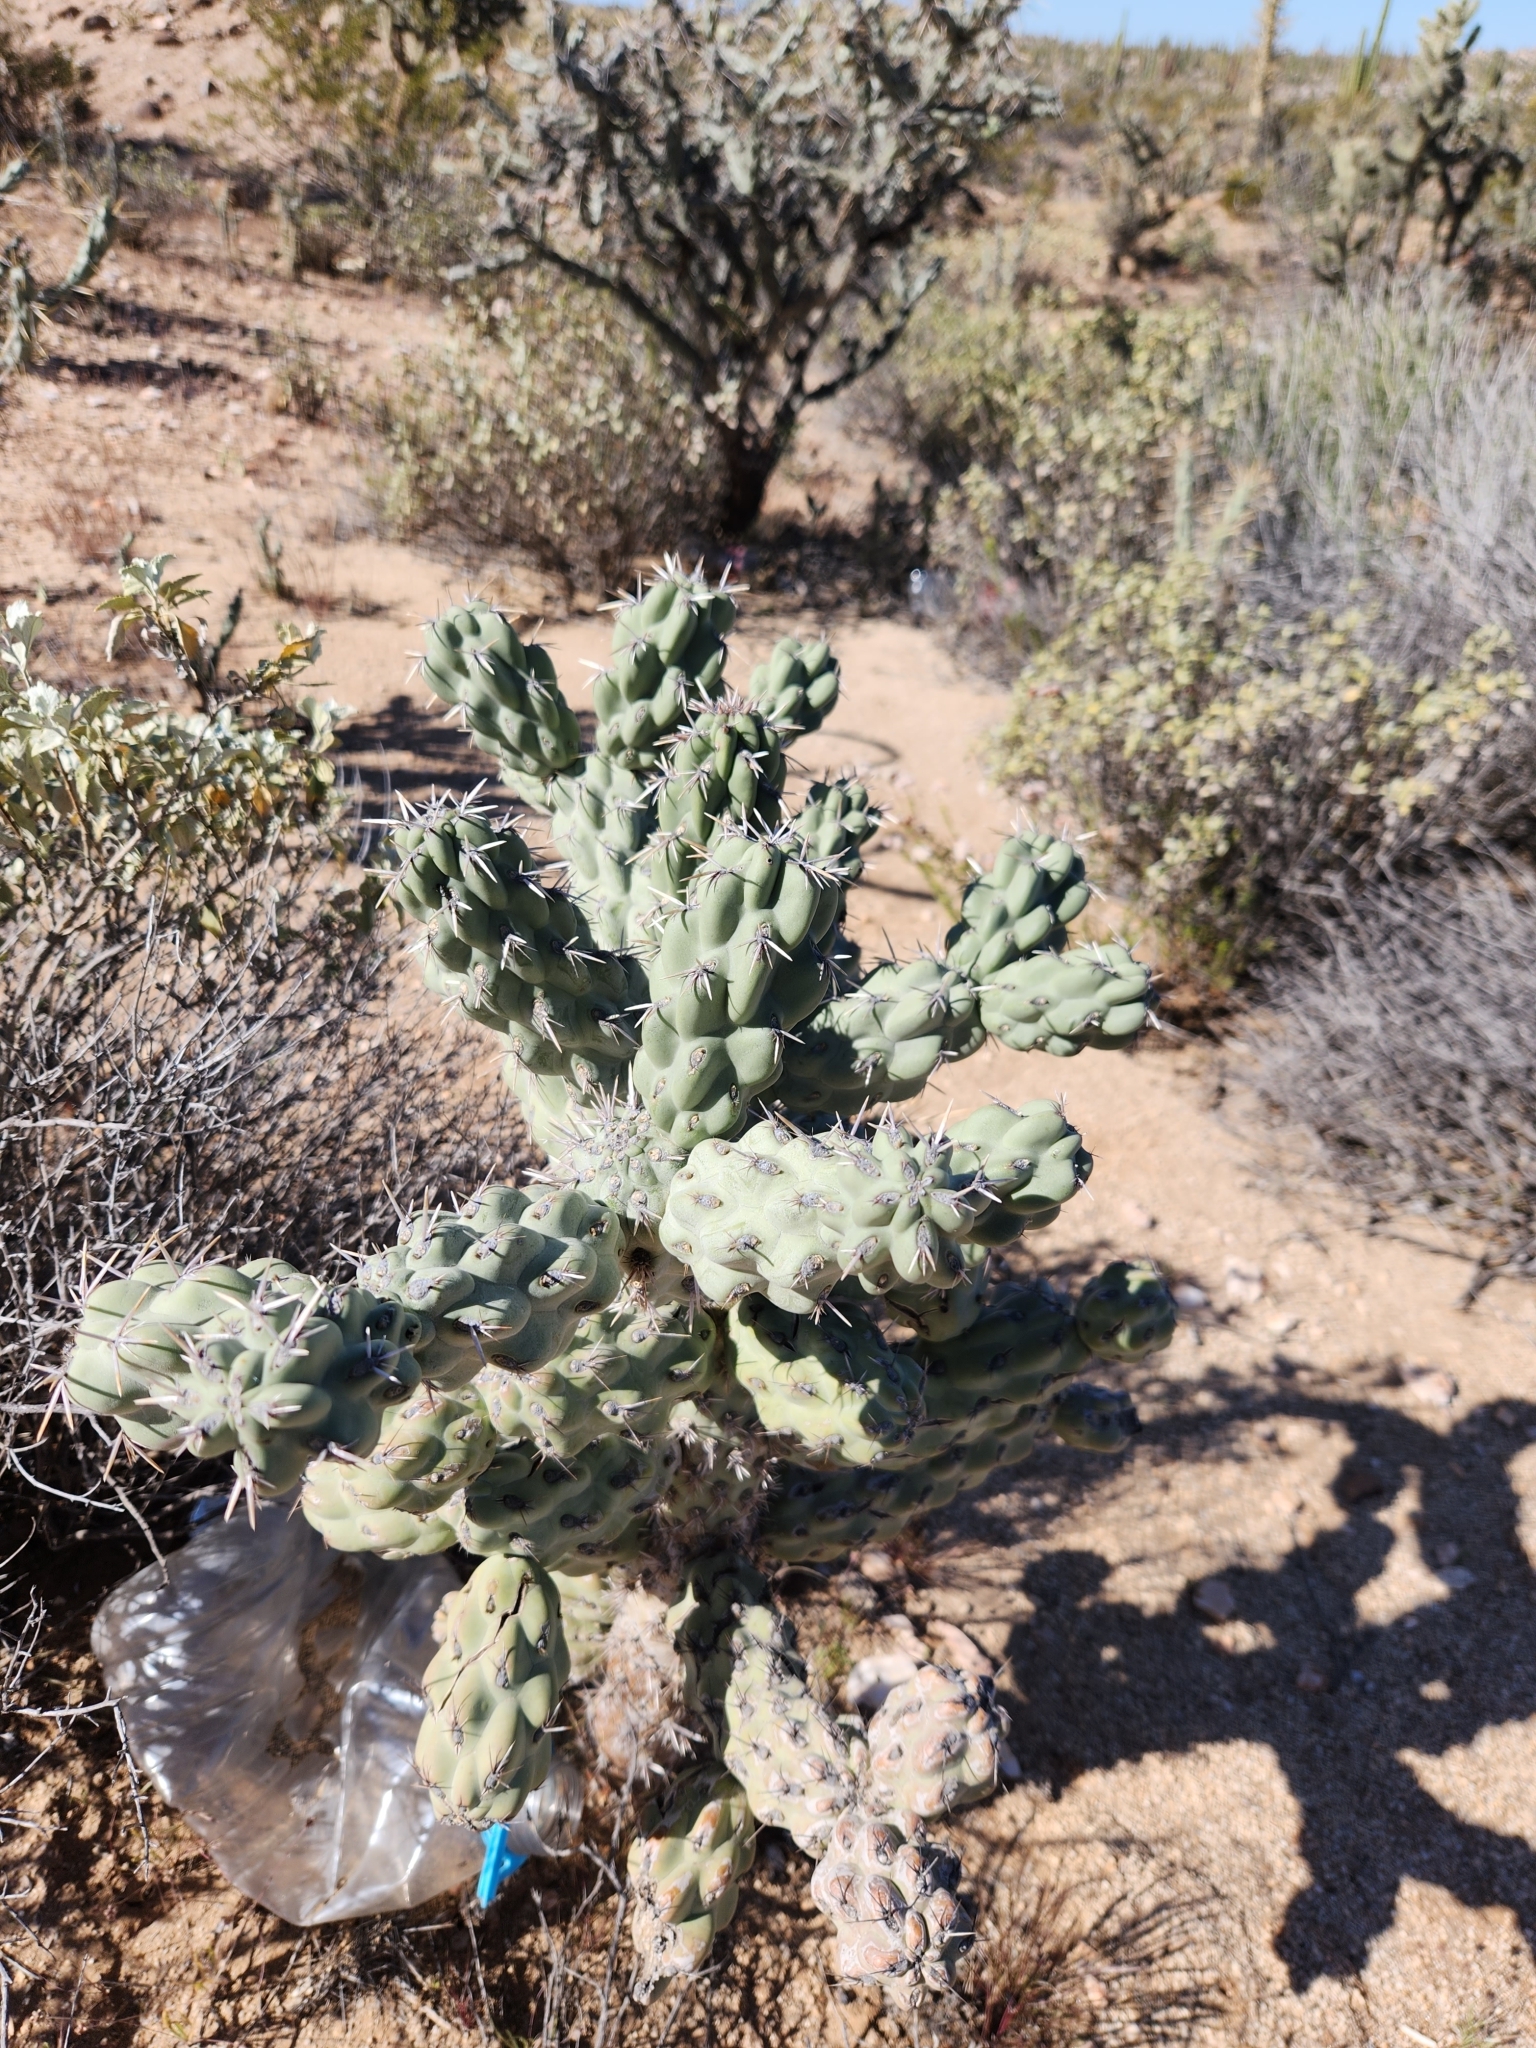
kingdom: Plantae
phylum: Tracheophyta
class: Magnoliopsida
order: Caryophyllales
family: Cactaceae
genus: Cylindropuntia
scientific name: Cylindropuntia cholla
